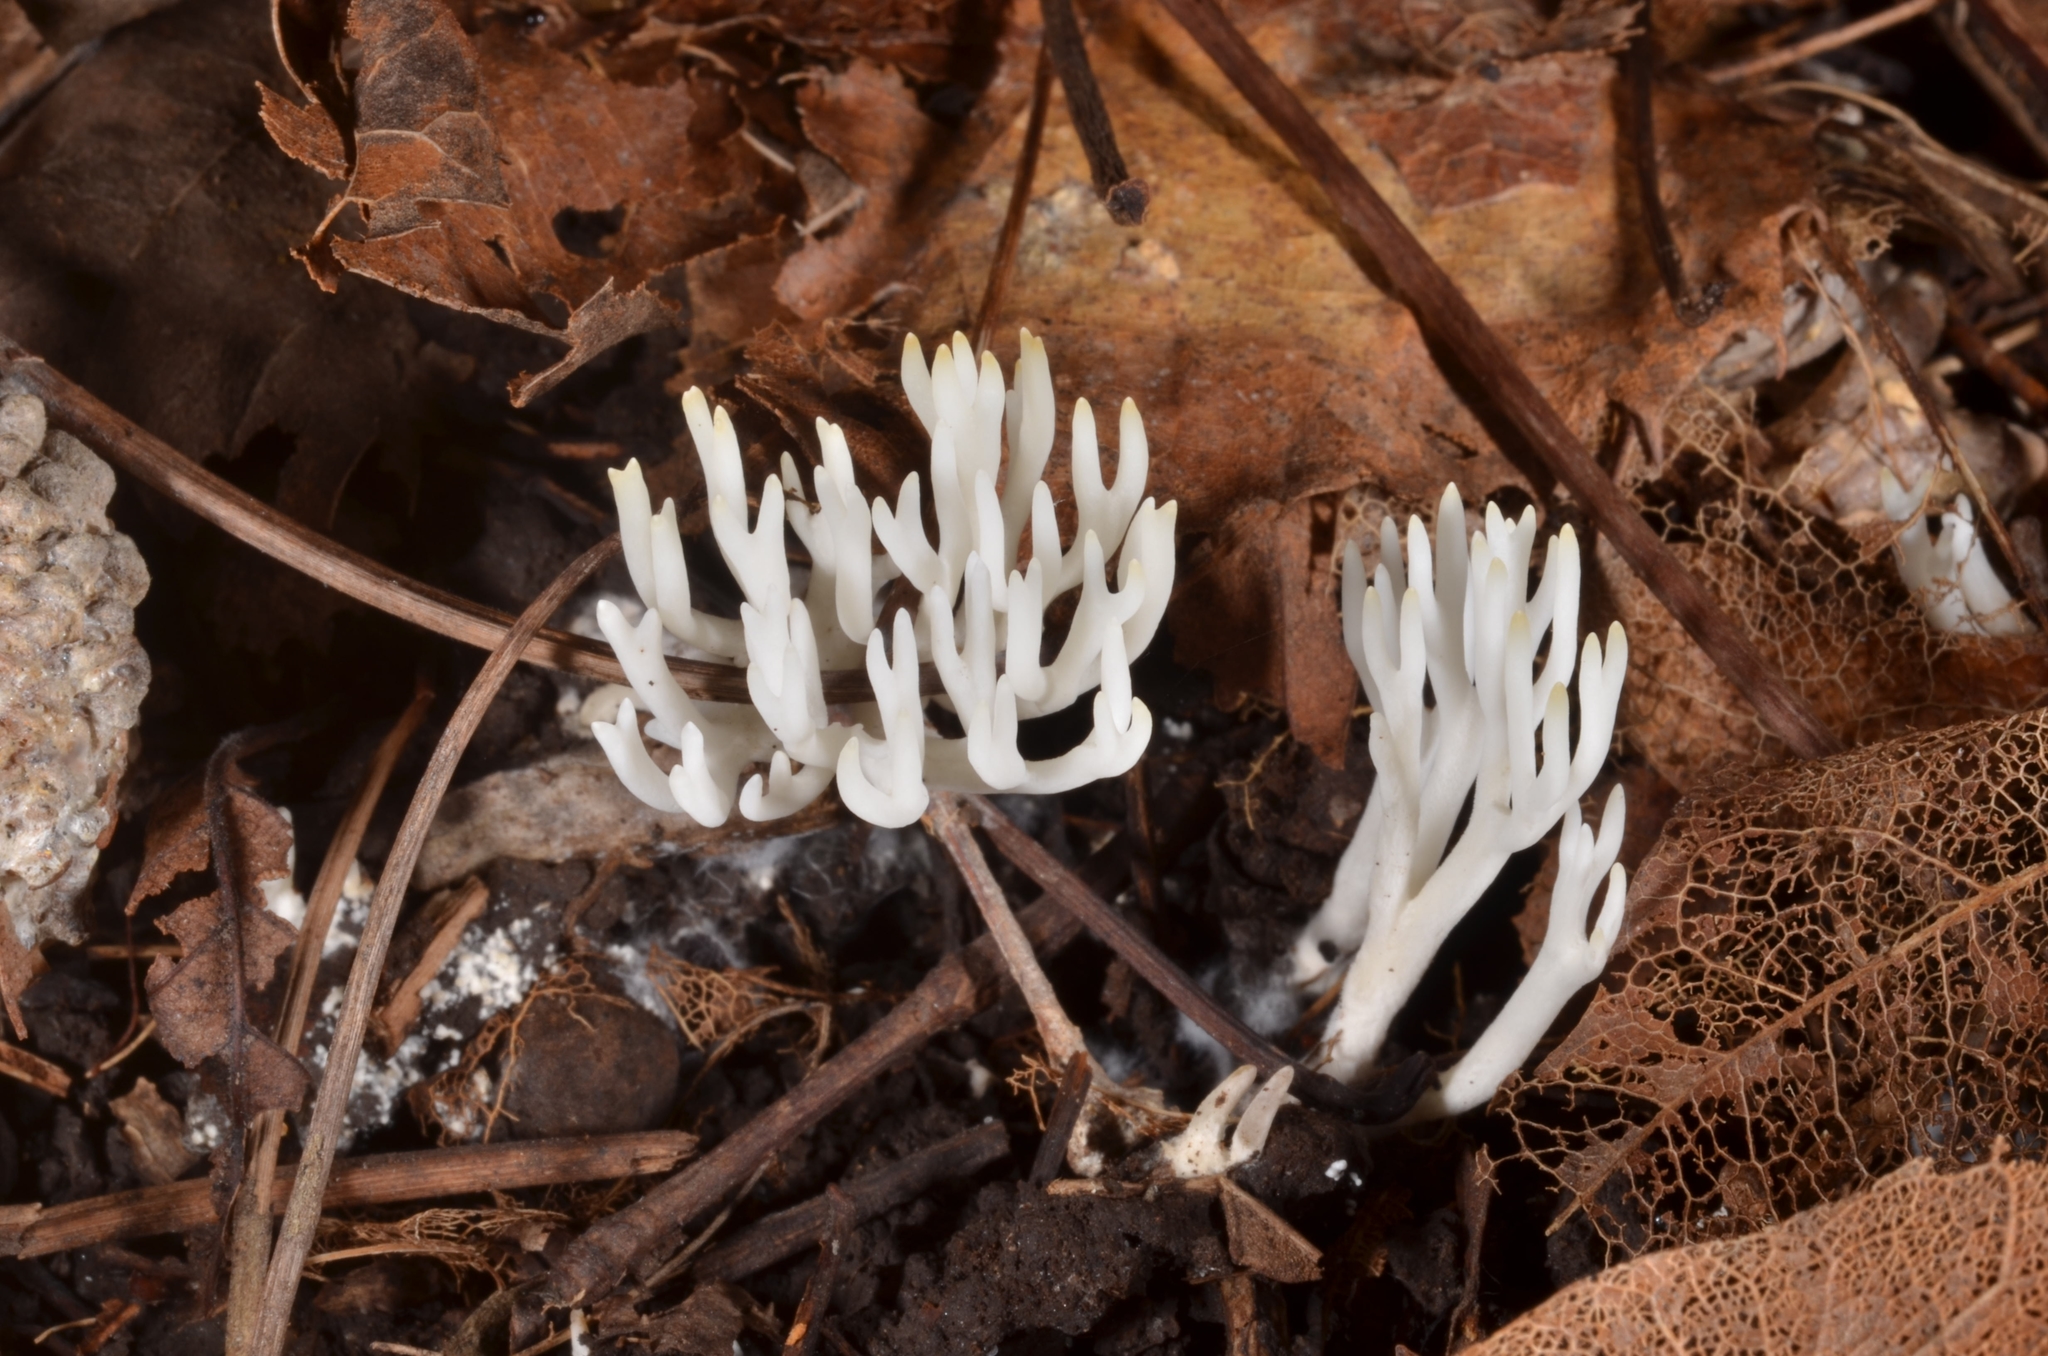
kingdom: Fungi
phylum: Basidiomycota
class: Agaricomycetes
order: Agaricales
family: Clavariaceae
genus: Ramariopsis
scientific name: Ramariopsis kunzei
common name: Ivory coral
